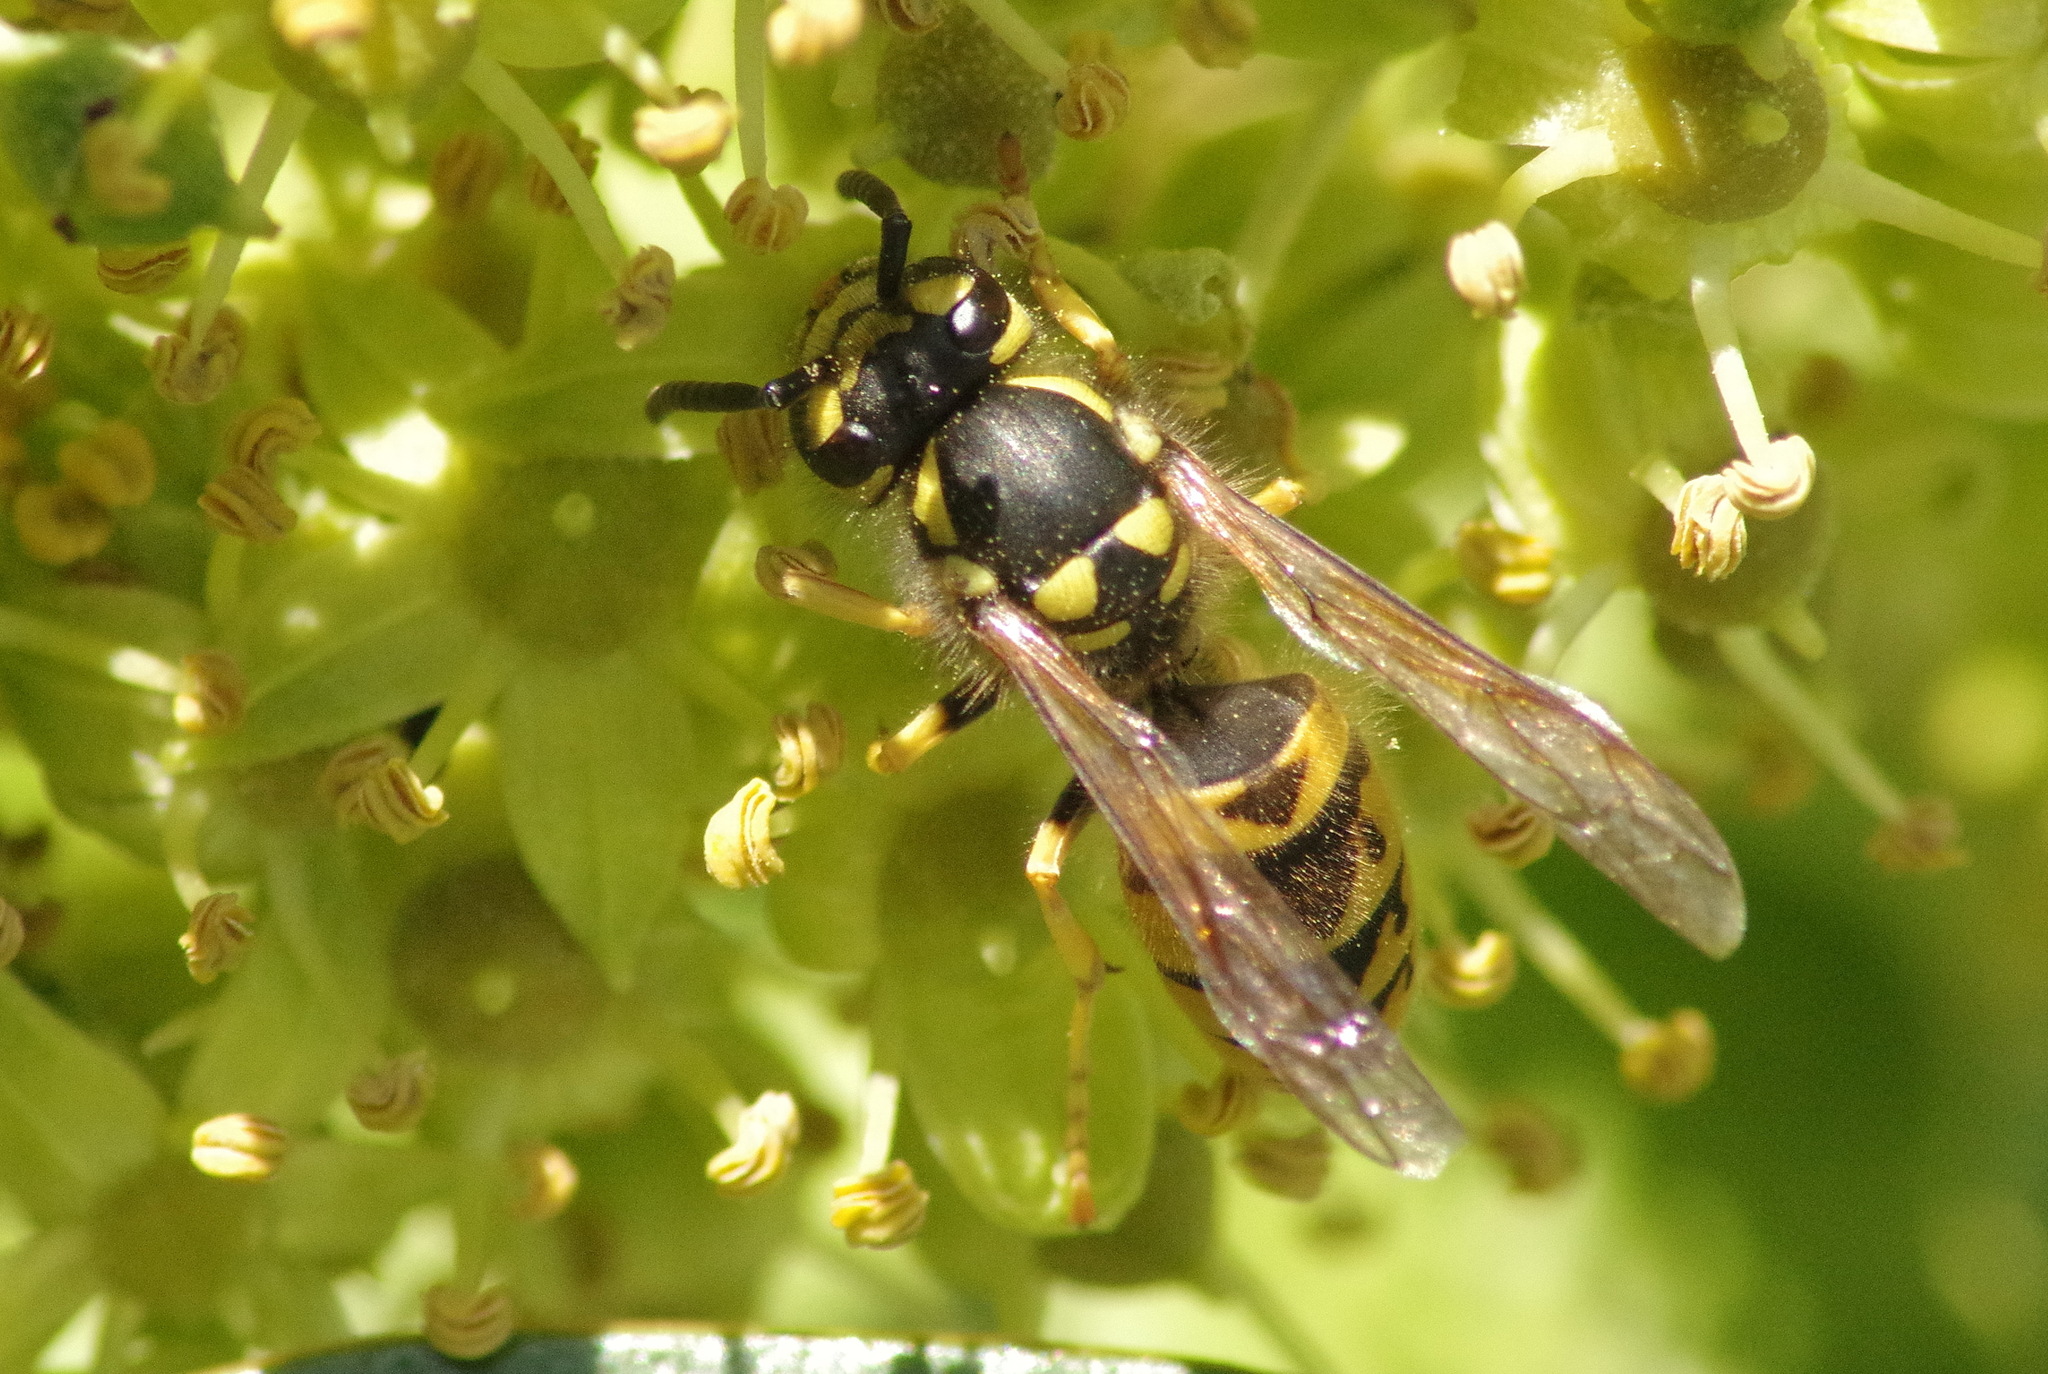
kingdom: Animalia
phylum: Arthropoda
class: Insecta
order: Hymenoptera
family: Vespidae
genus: Vespula
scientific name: Vespula germanica
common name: German wasp
